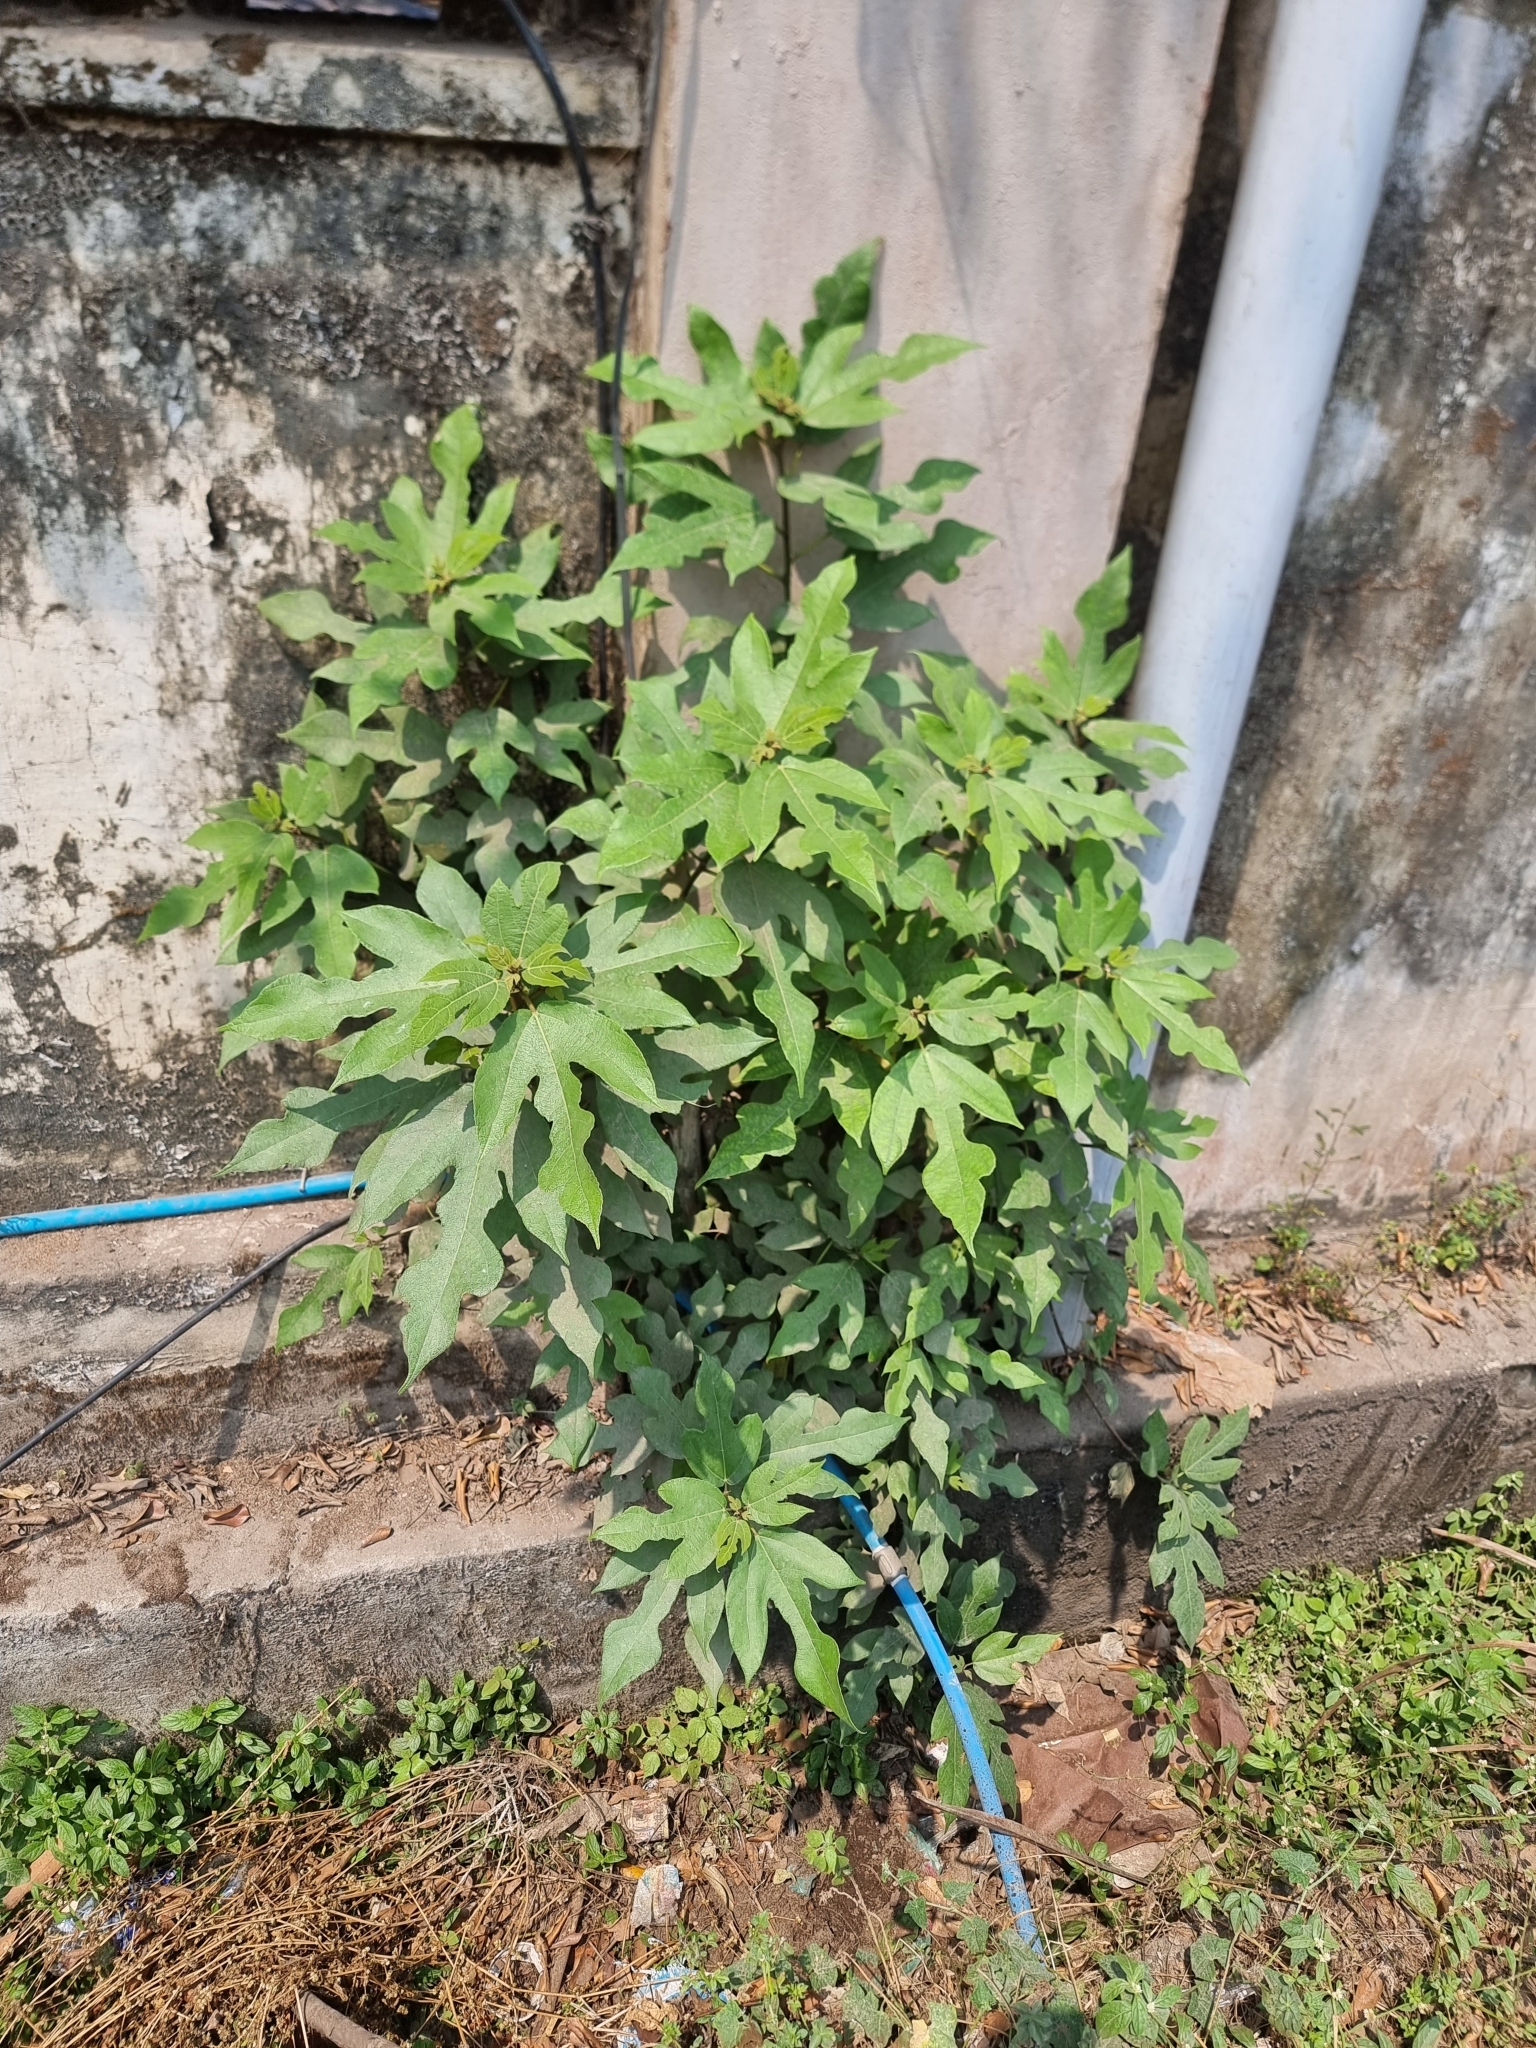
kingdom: Plantae
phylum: Tracheophyta
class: Magnoliopsida
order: Rosales
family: Moraceae
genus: Ficus
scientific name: Ficus carica
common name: Fig
